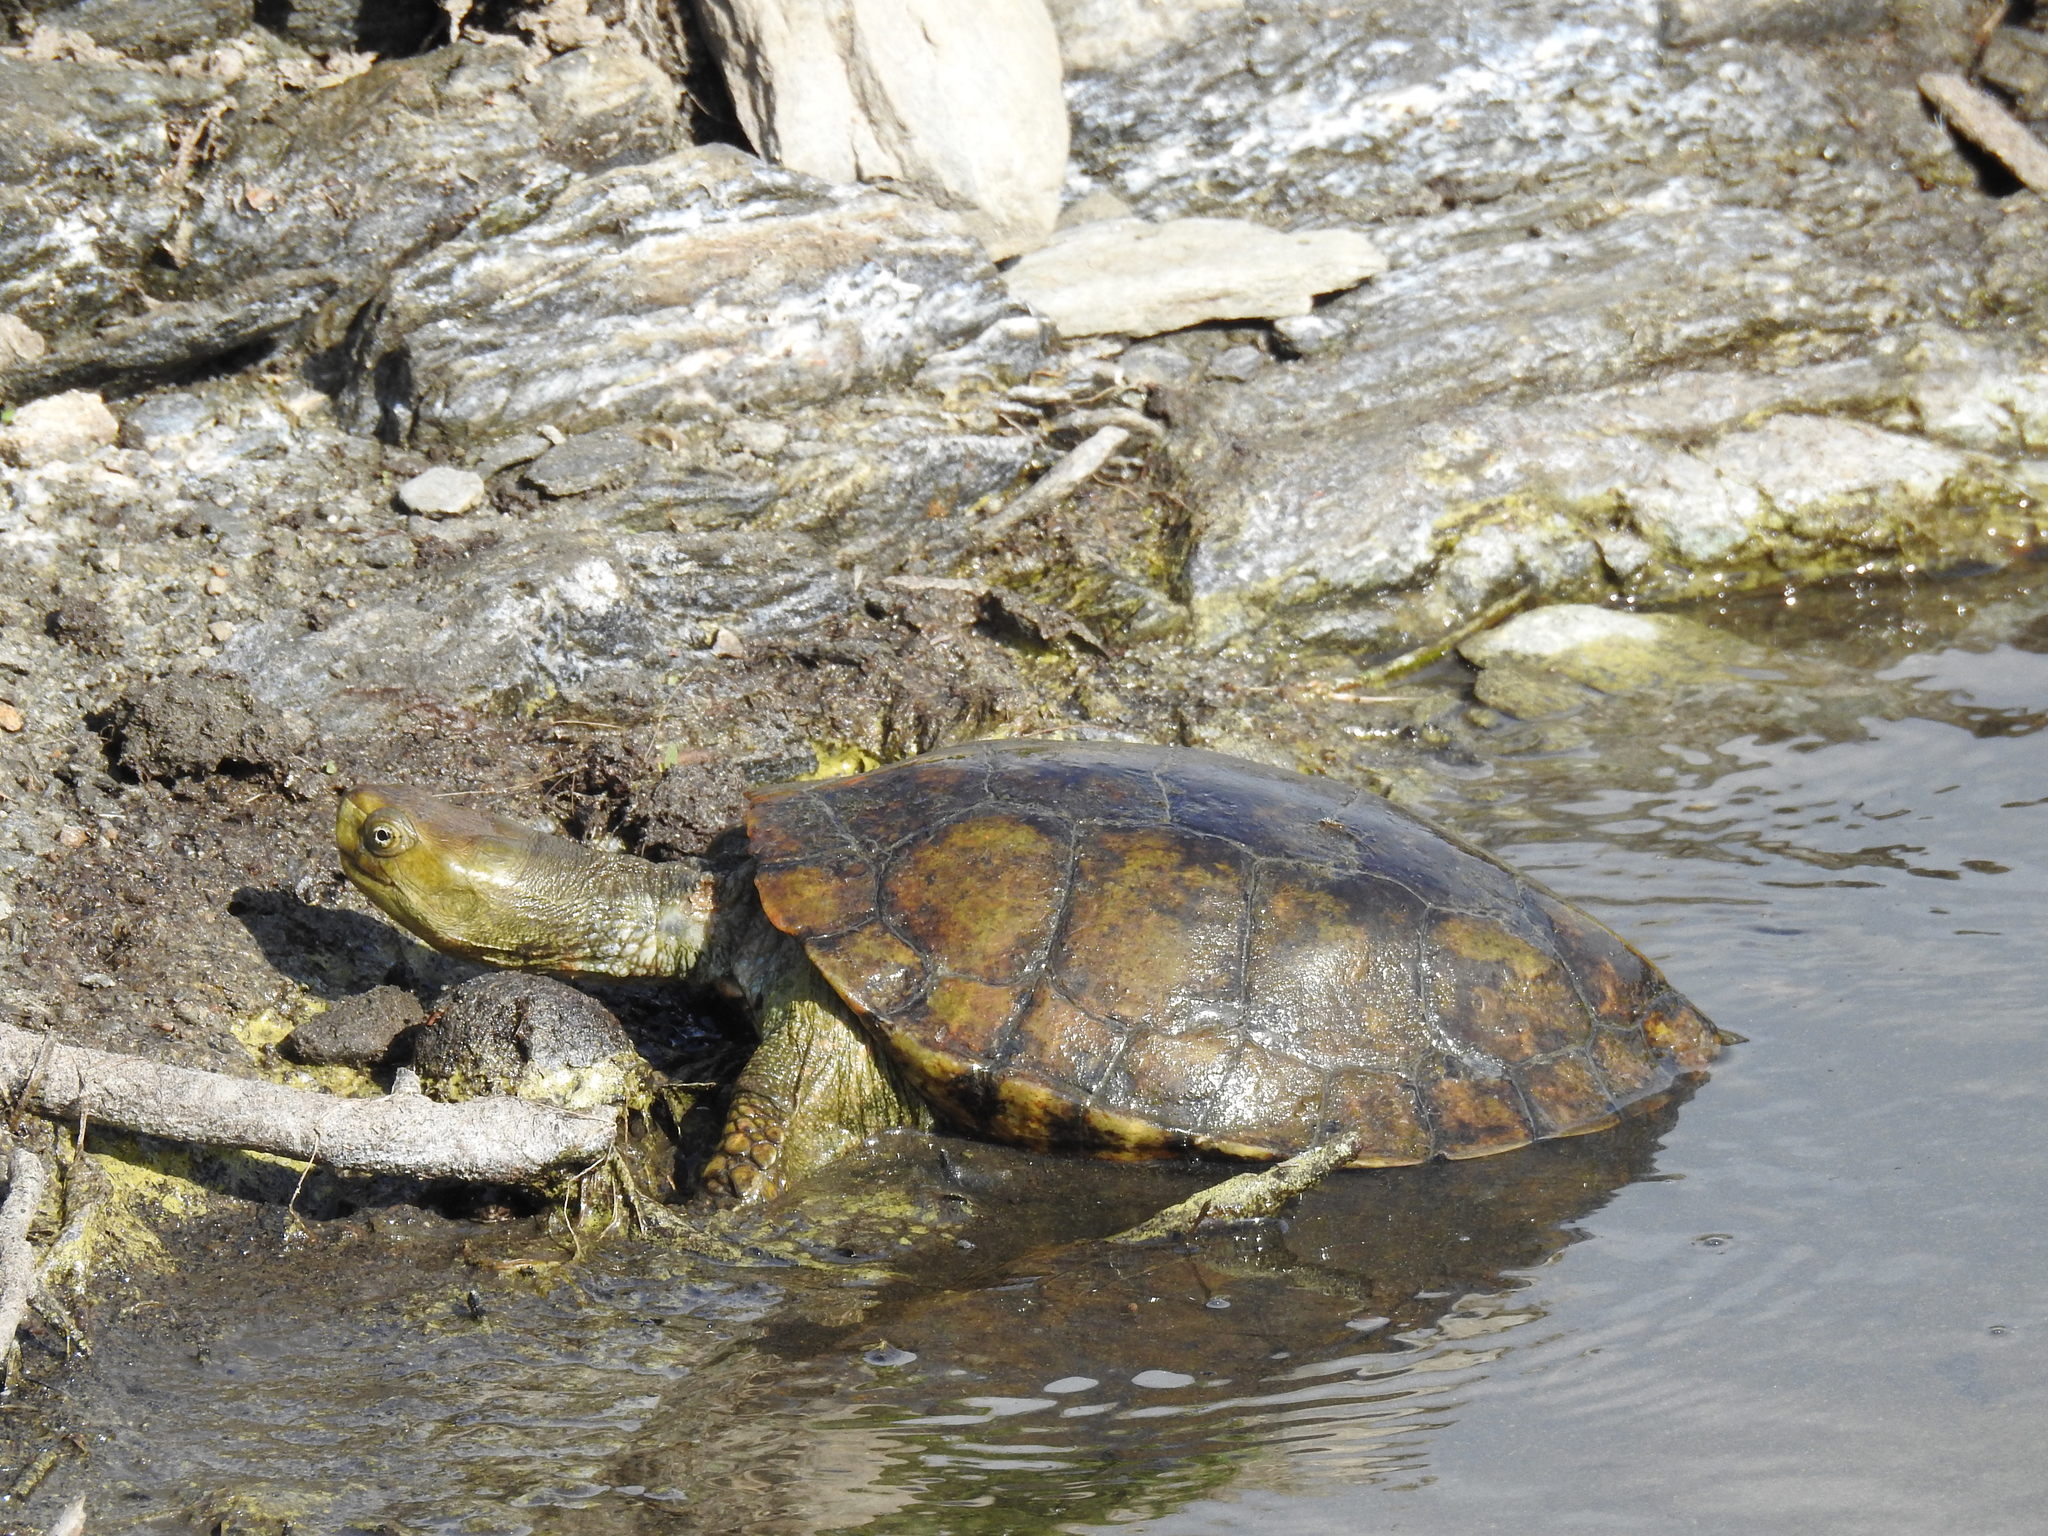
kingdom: Animalia
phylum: Chordata
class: Testudines
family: Geoemydidae
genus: Mauremys
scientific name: Mauremys leprosa
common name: Mediterranean pond turtle
